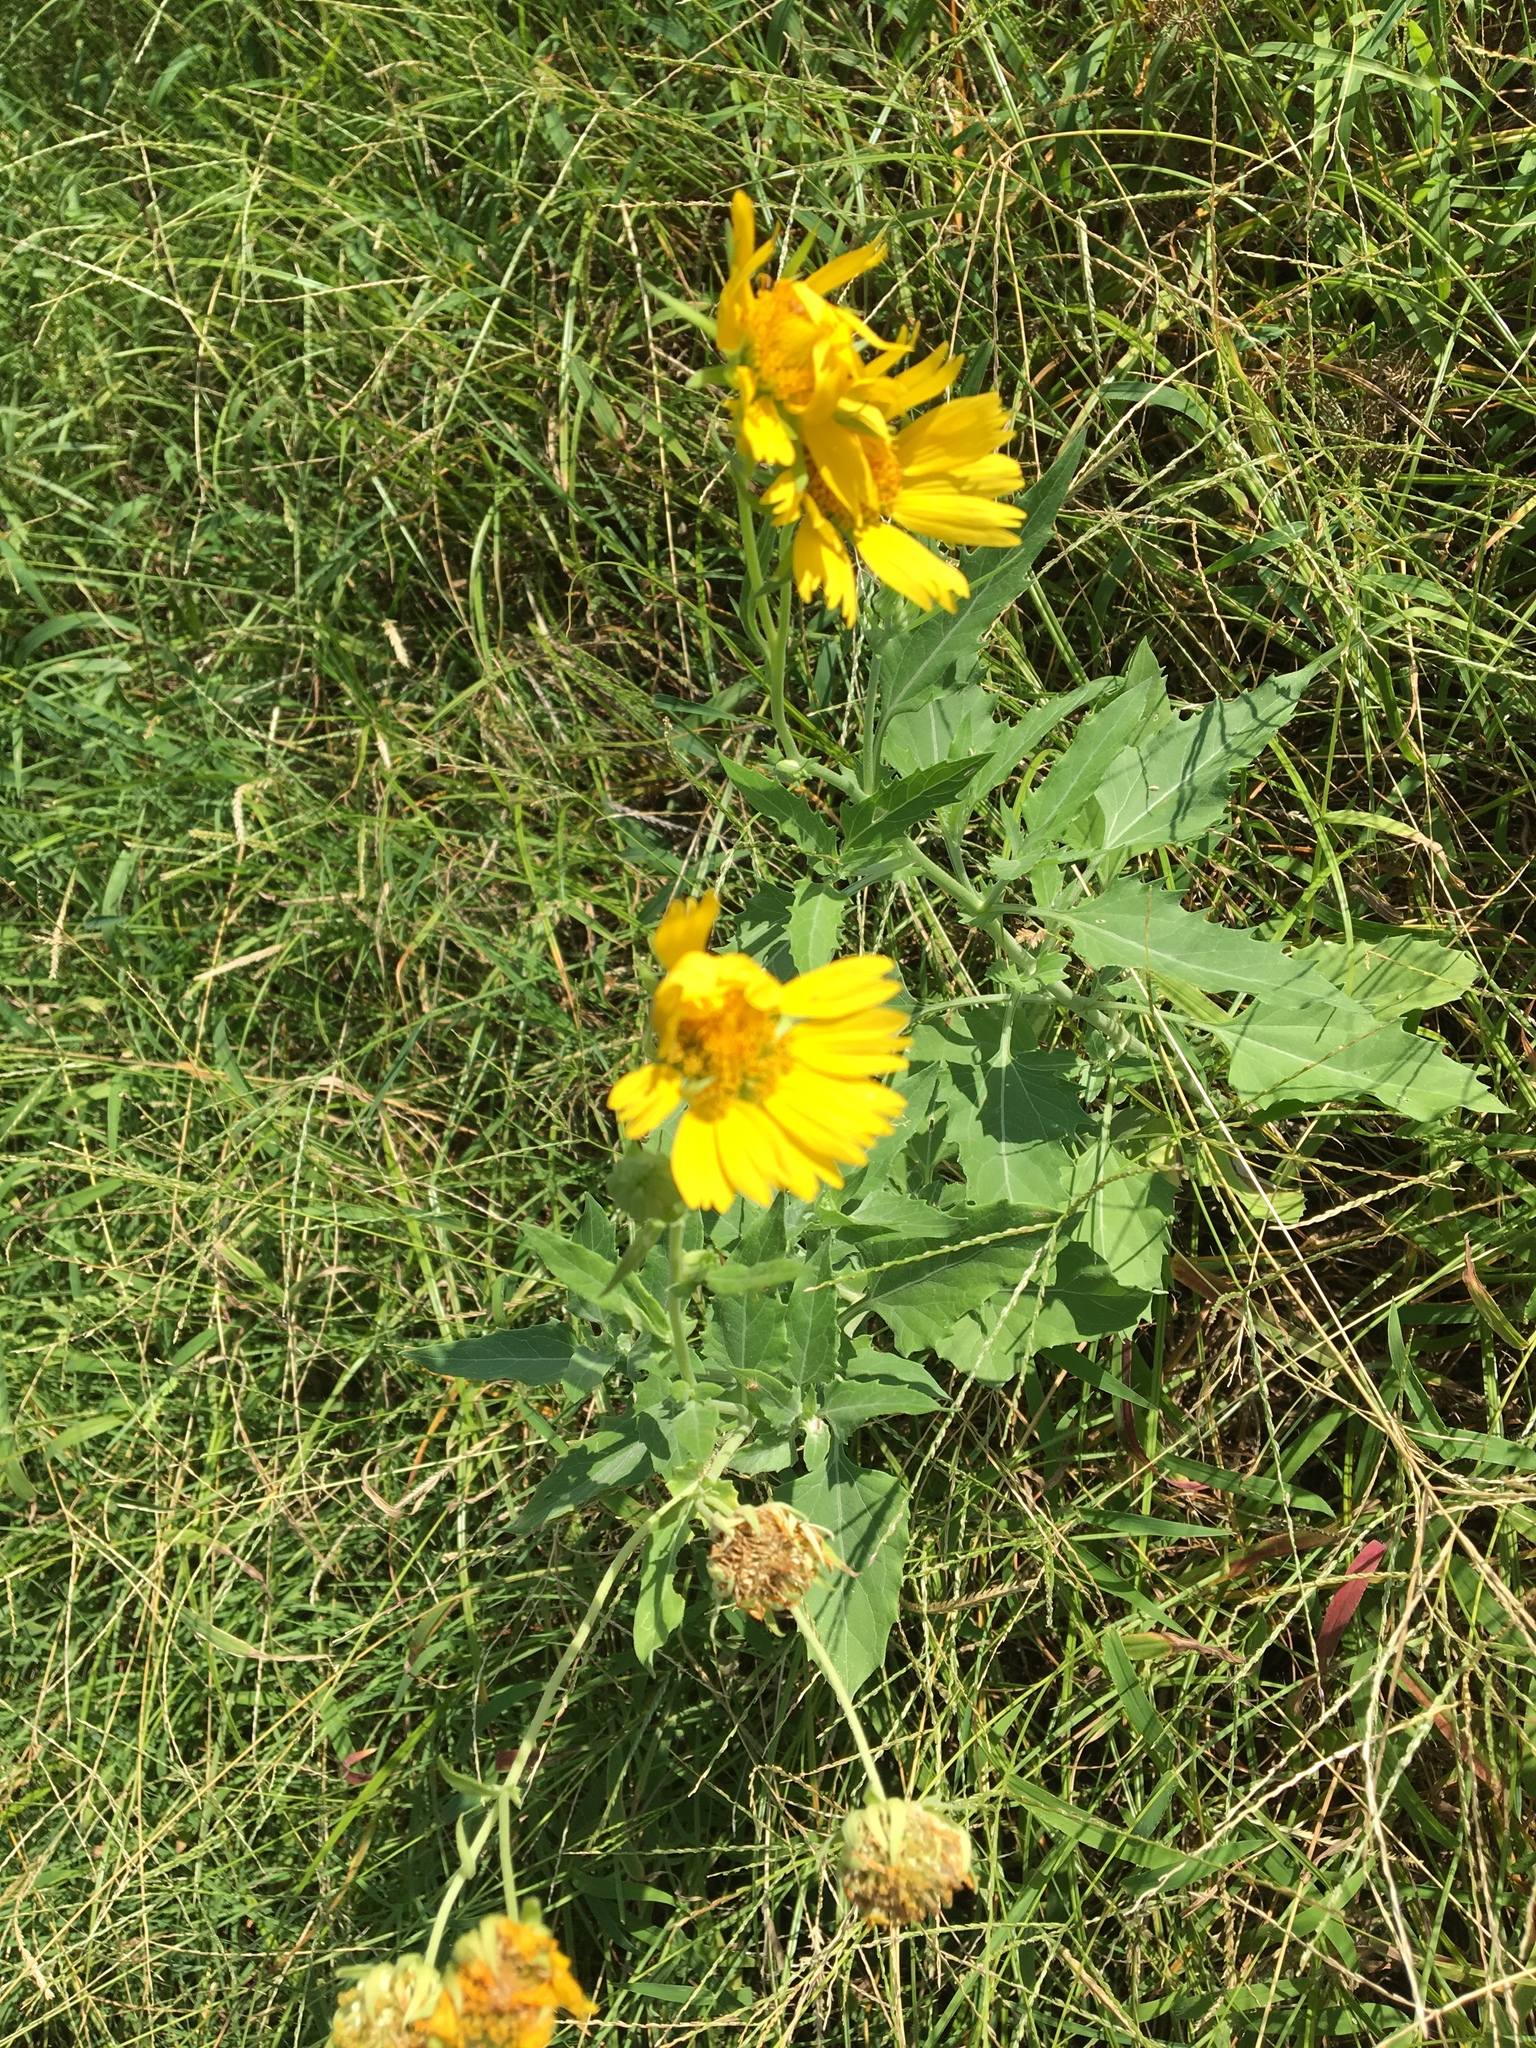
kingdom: Plantae
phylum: Tracheophyta
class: Magnoliopsida
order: Asterales
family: Asteraceae
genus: Verbesina
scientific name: Verbesina encelioides
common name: Golden crownbeard
